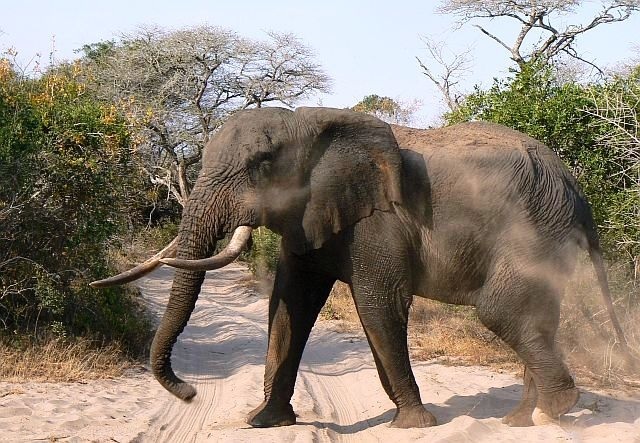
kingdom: Animalia
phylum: Chordata
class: Mammalia
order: Proboscidea
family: Elephantidae
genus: Loxodonta
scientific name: Loxodonta africana
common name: African elephant
